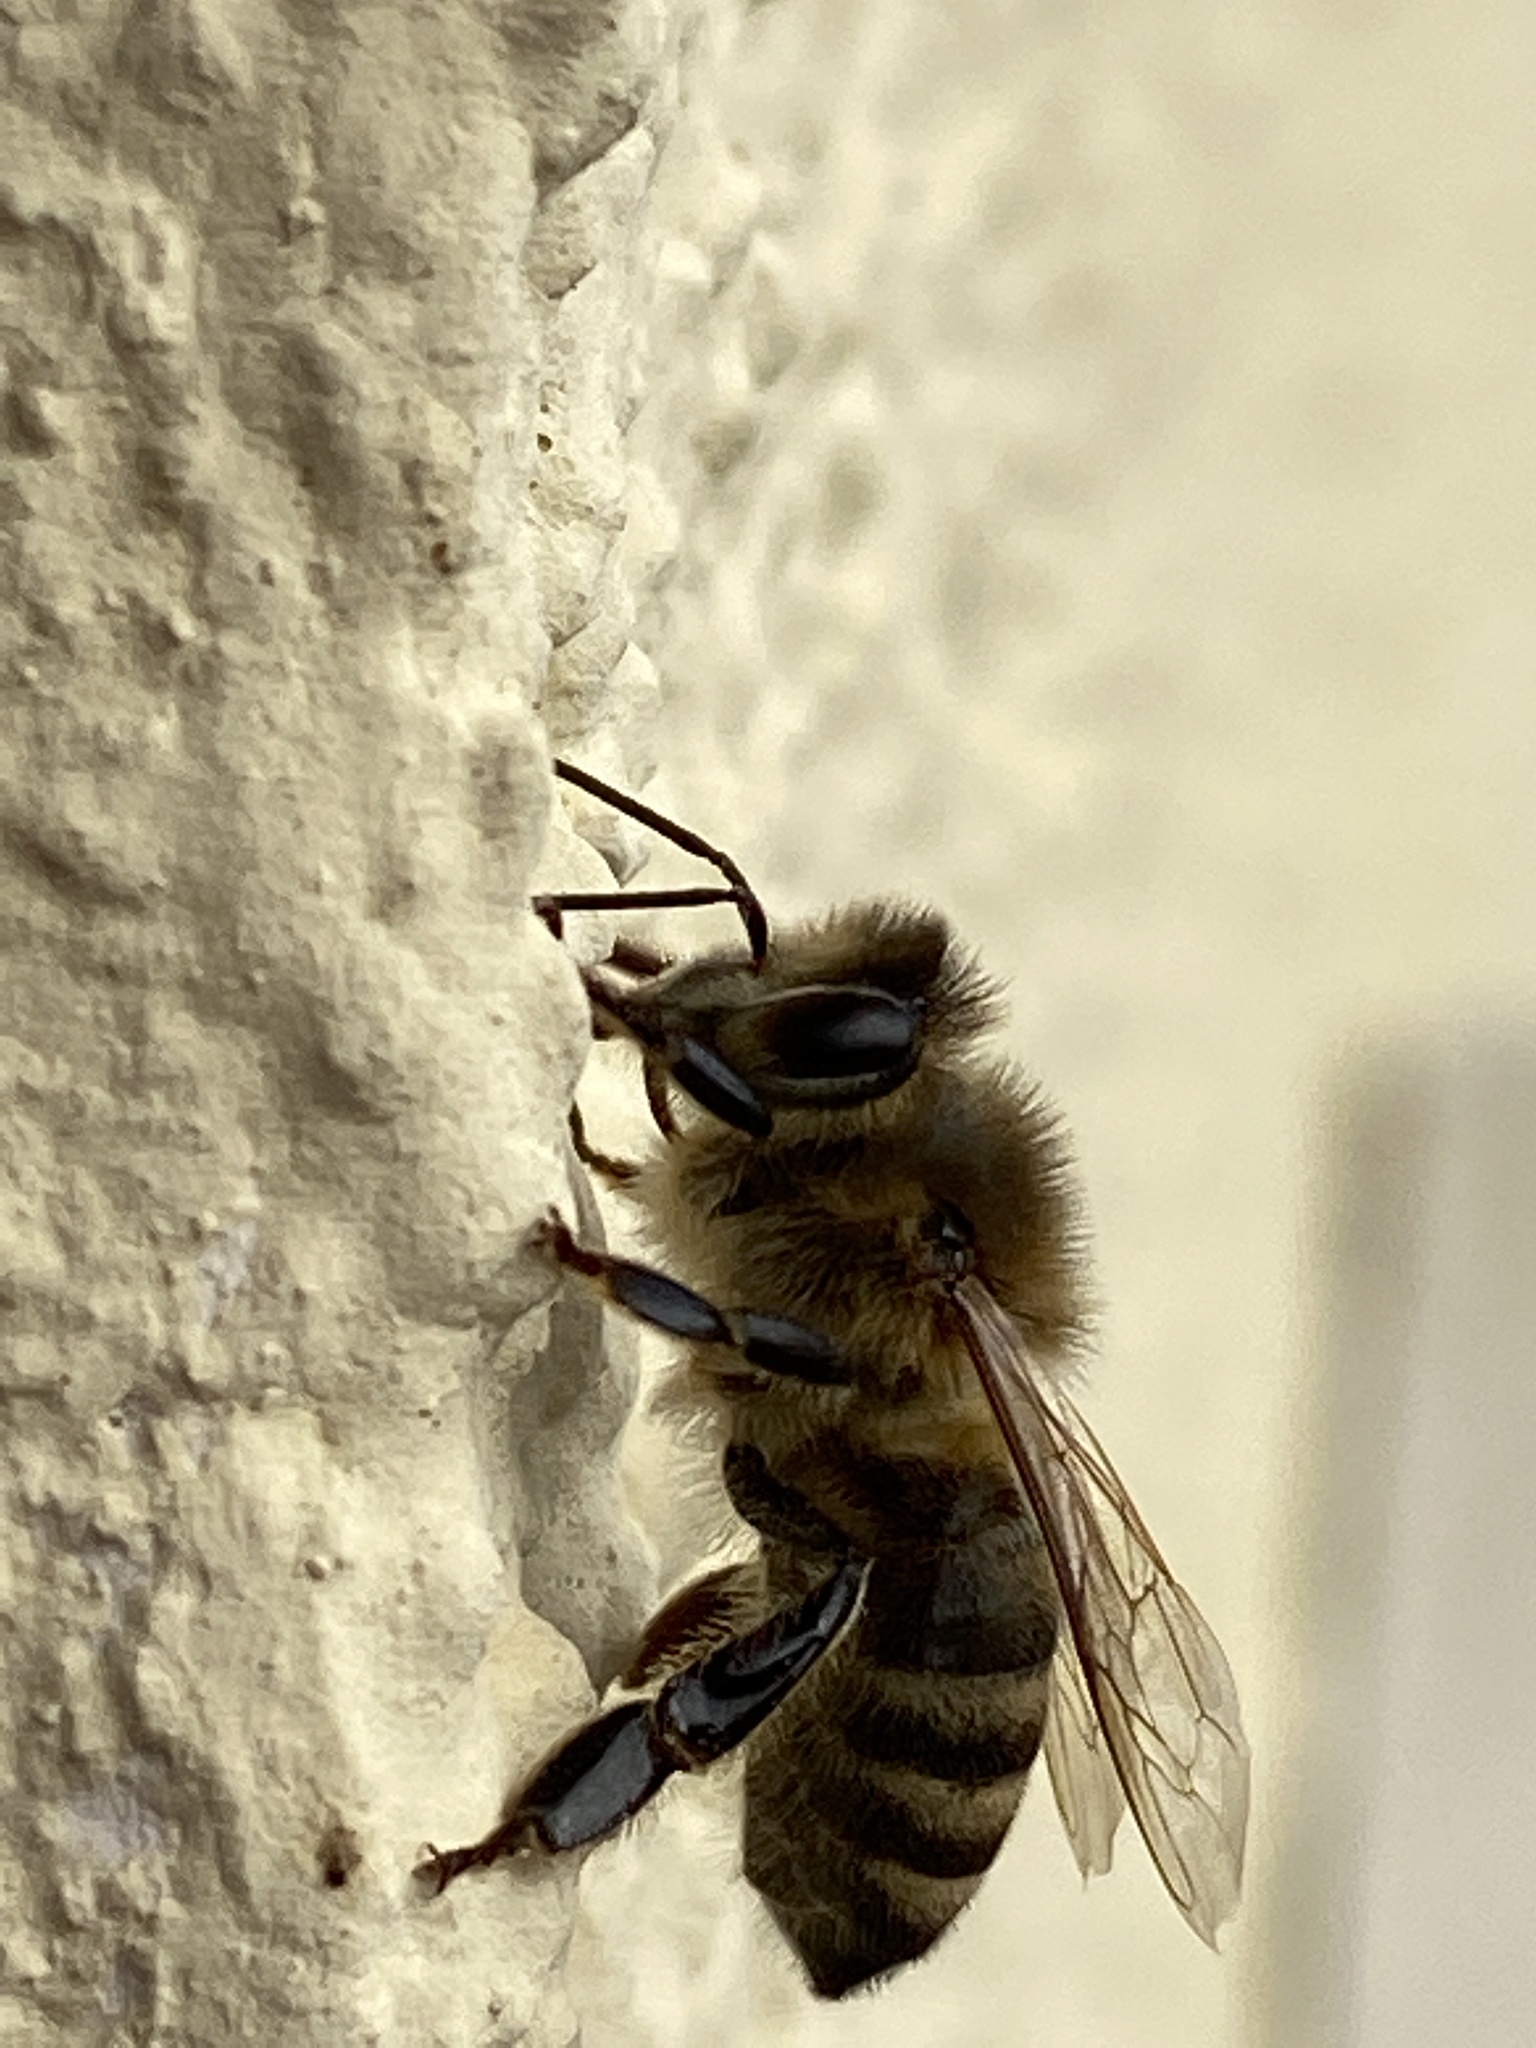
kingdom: Animalia
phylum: Arthropoda
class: Insecta
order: Hymenoptera
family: Apidae
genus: Apis
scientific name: Apis mellifera
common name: Honey bee
